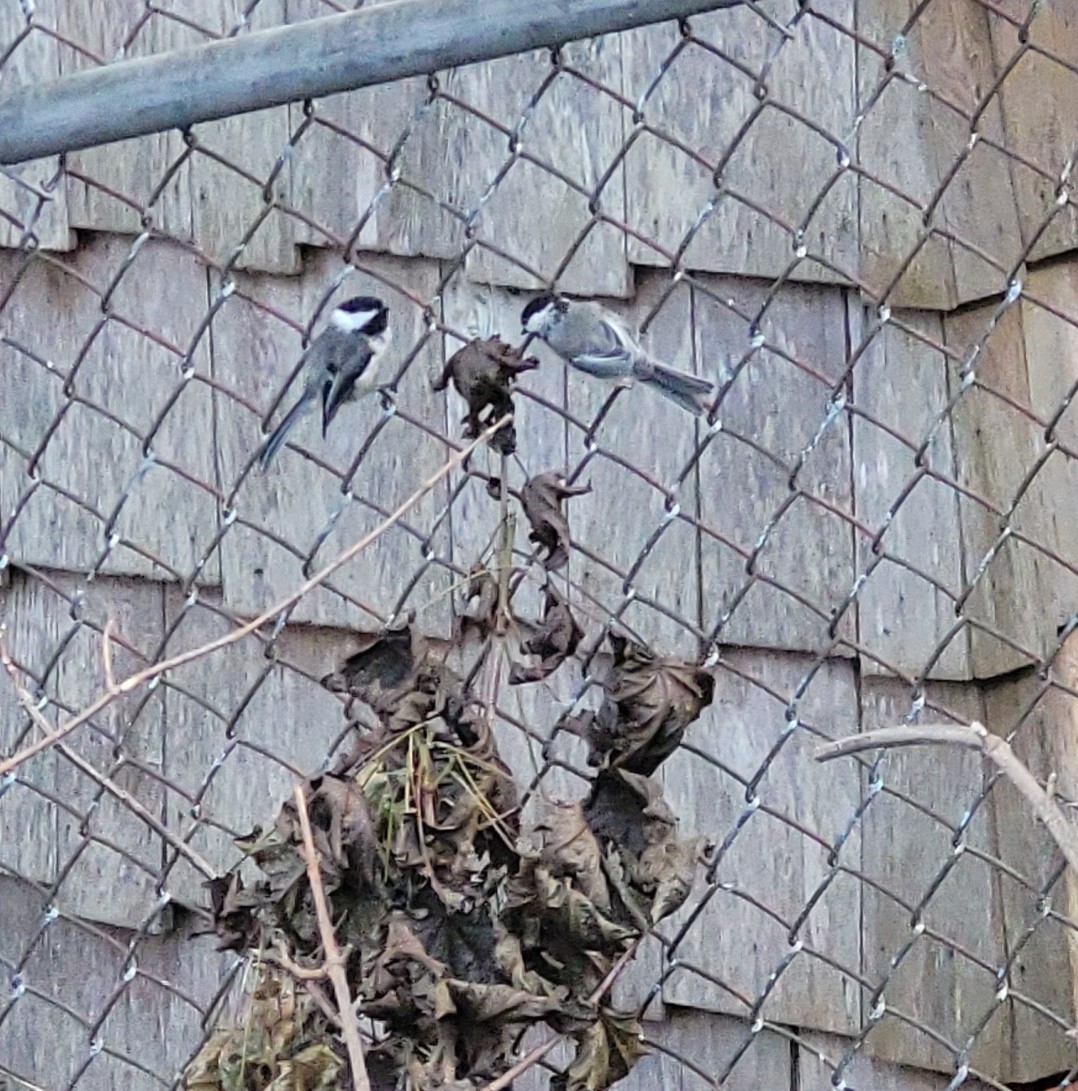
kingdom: Animalia
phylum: Chordata
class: Aves
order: Passeriformes
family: Paridae
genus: Poecile
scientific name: Poecile atricapillus
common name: Black-capped chickadee
